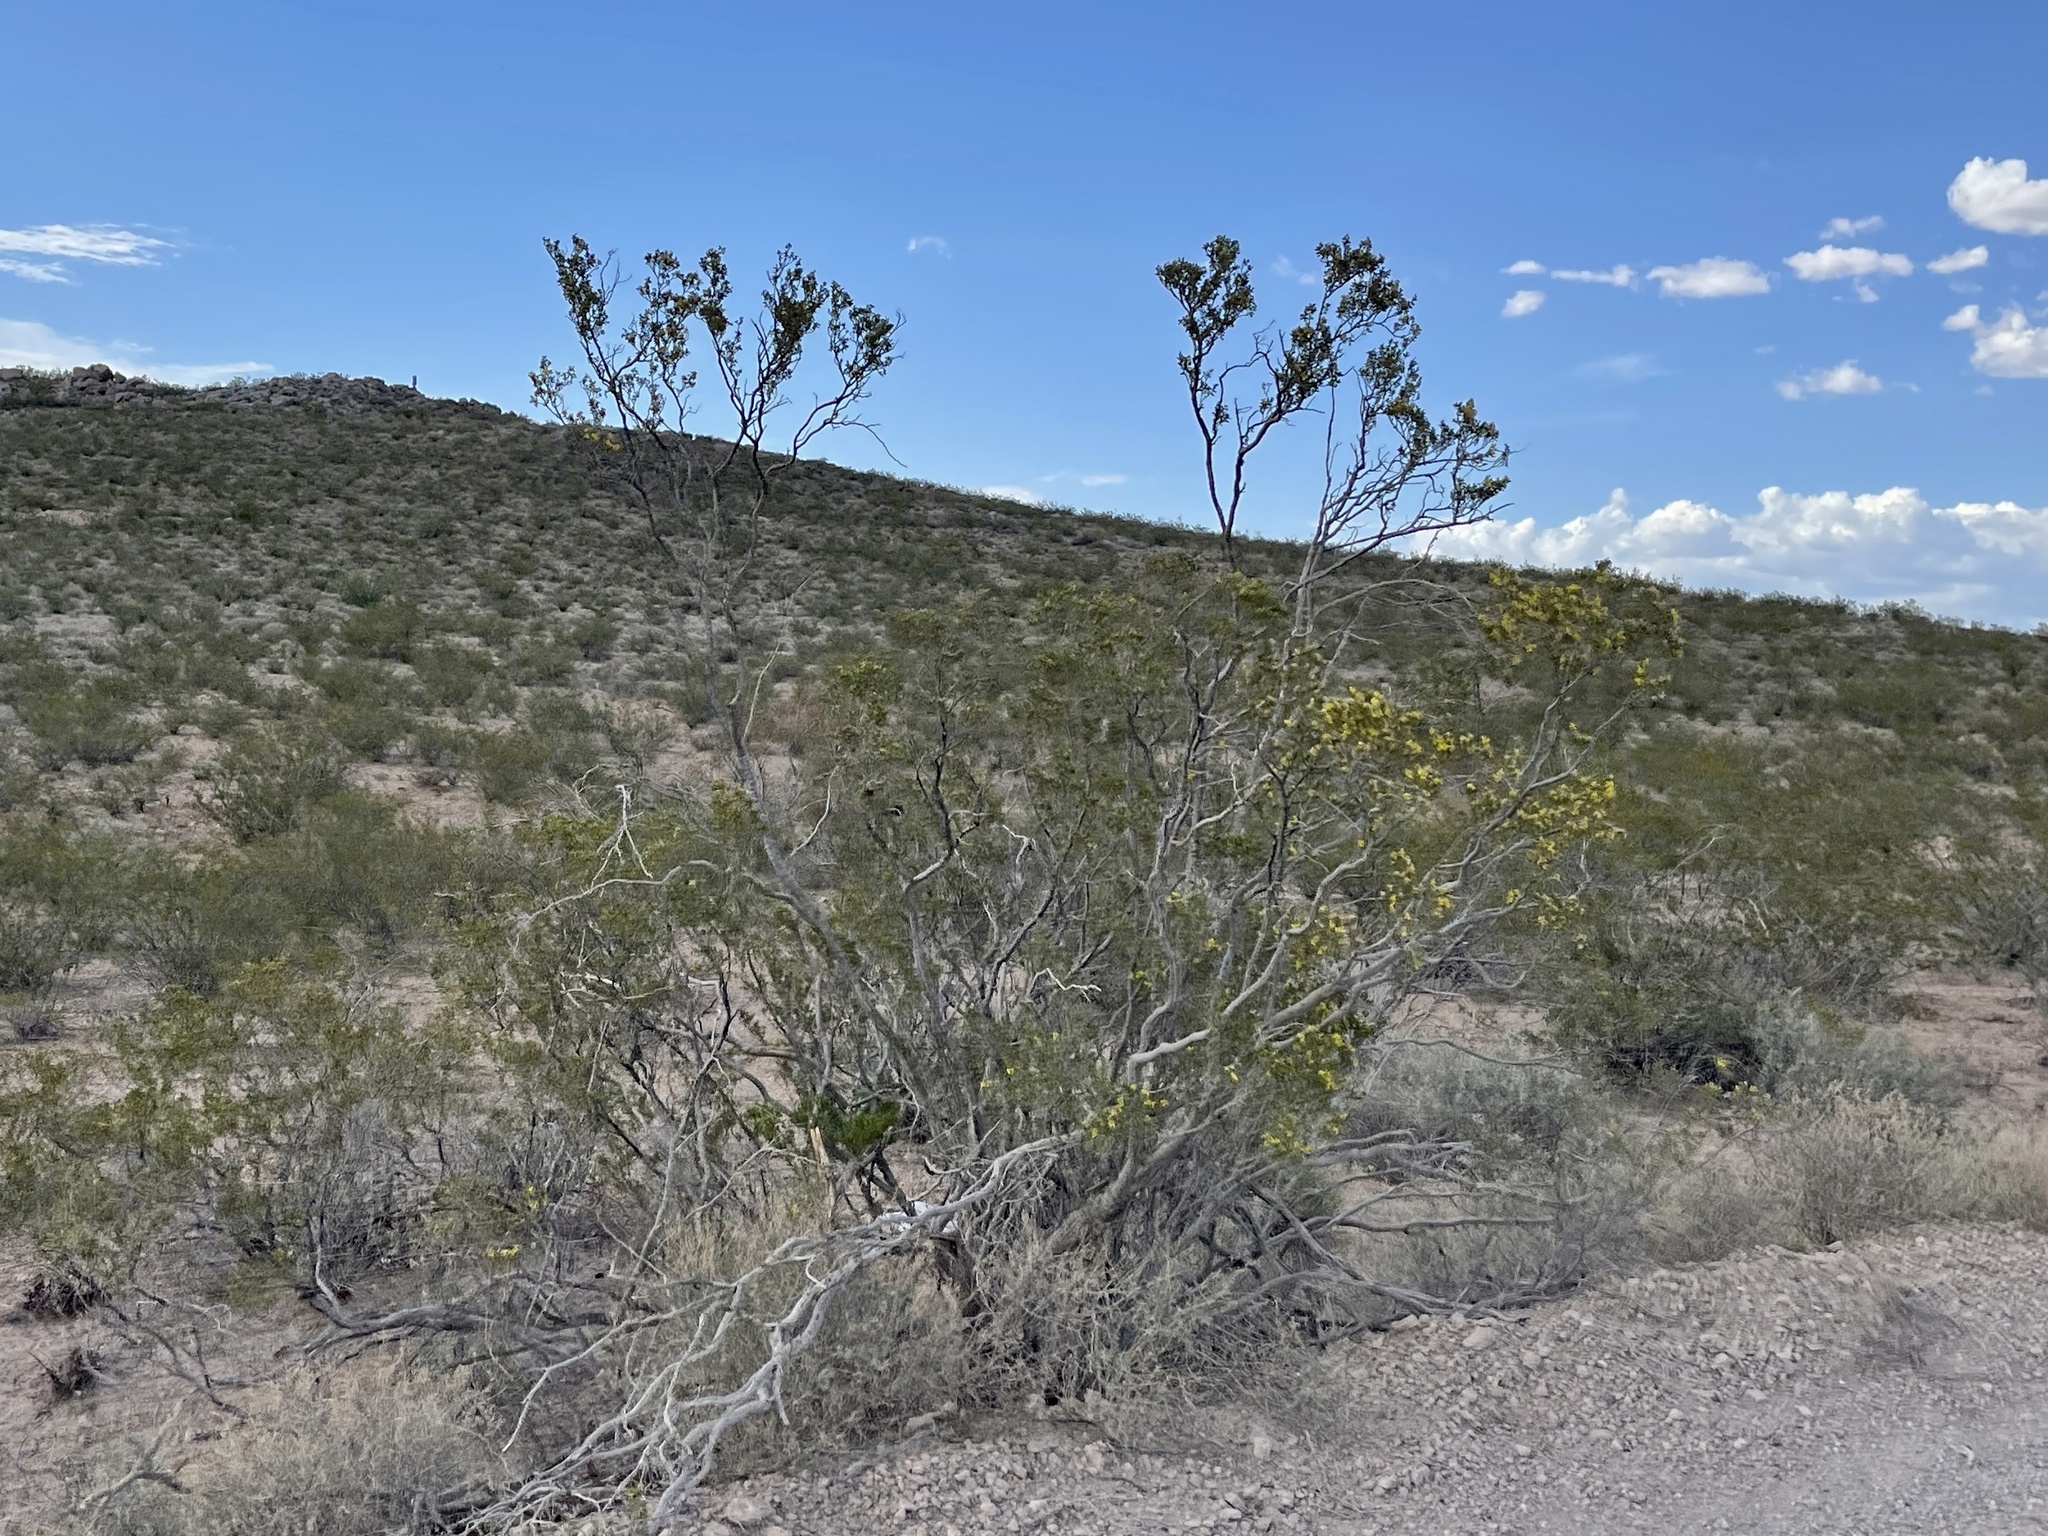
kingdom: Plantae
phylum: Tracheophyta
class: Magnoliopsida
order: Zygophyllales
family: Zygophyllaceae
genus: Larrea
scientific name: Larrea tridentata
